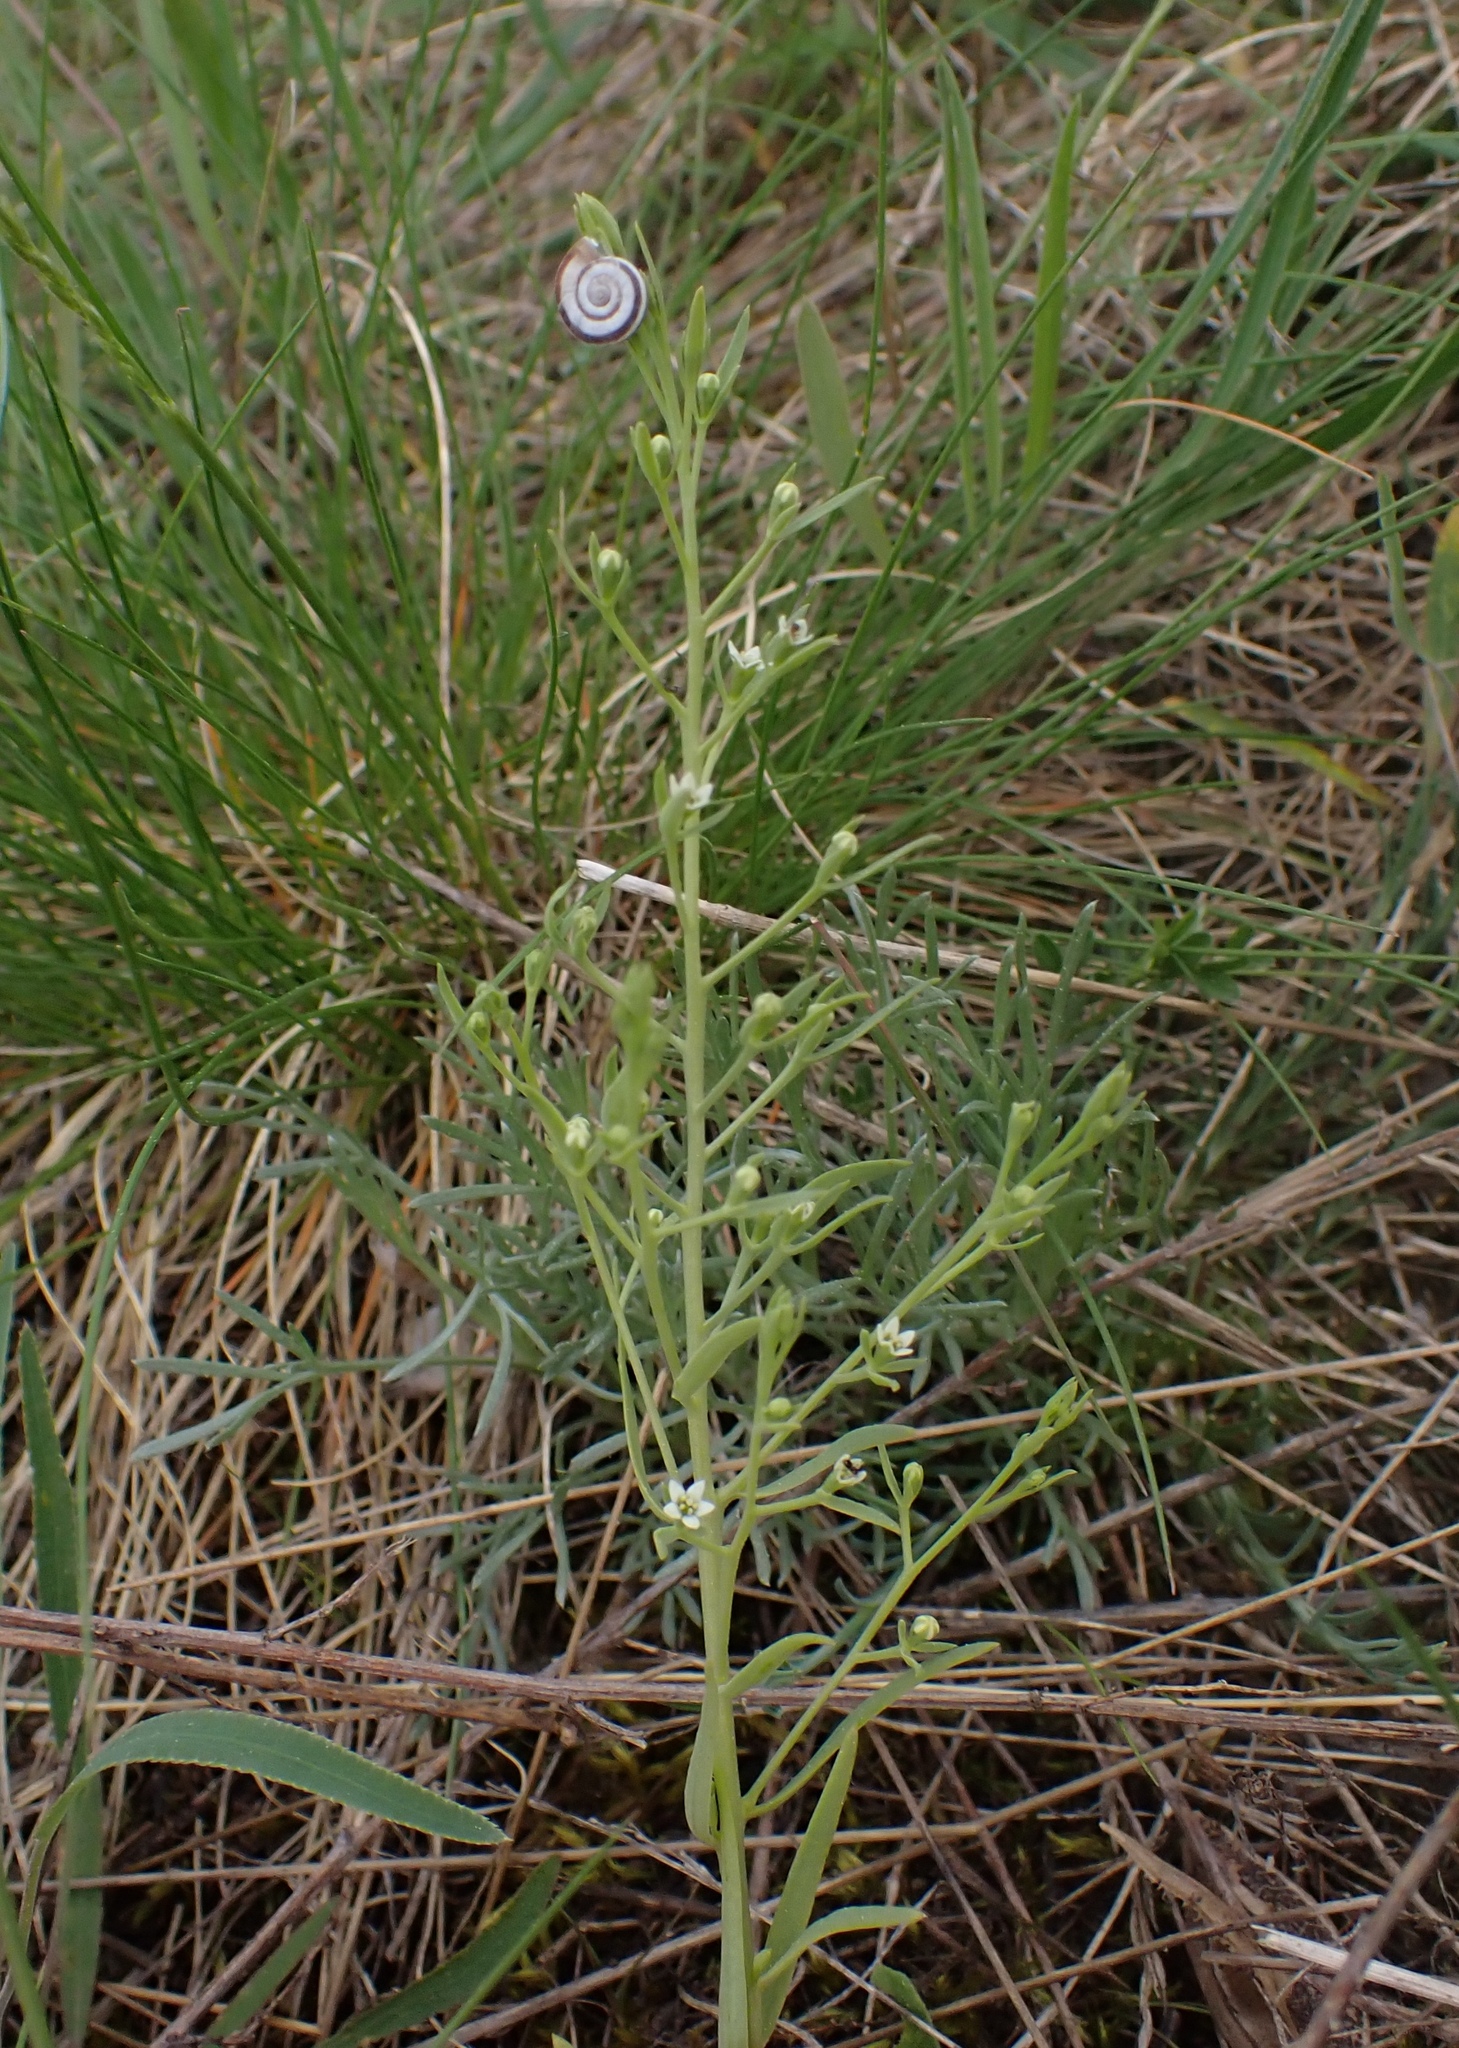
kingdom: Plantae
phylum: Tracheophyta
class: Magnoliopsida
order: Santalales
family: Thesiaceae
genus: Thesium
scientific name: Thesium ramosum
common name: Field thesium
